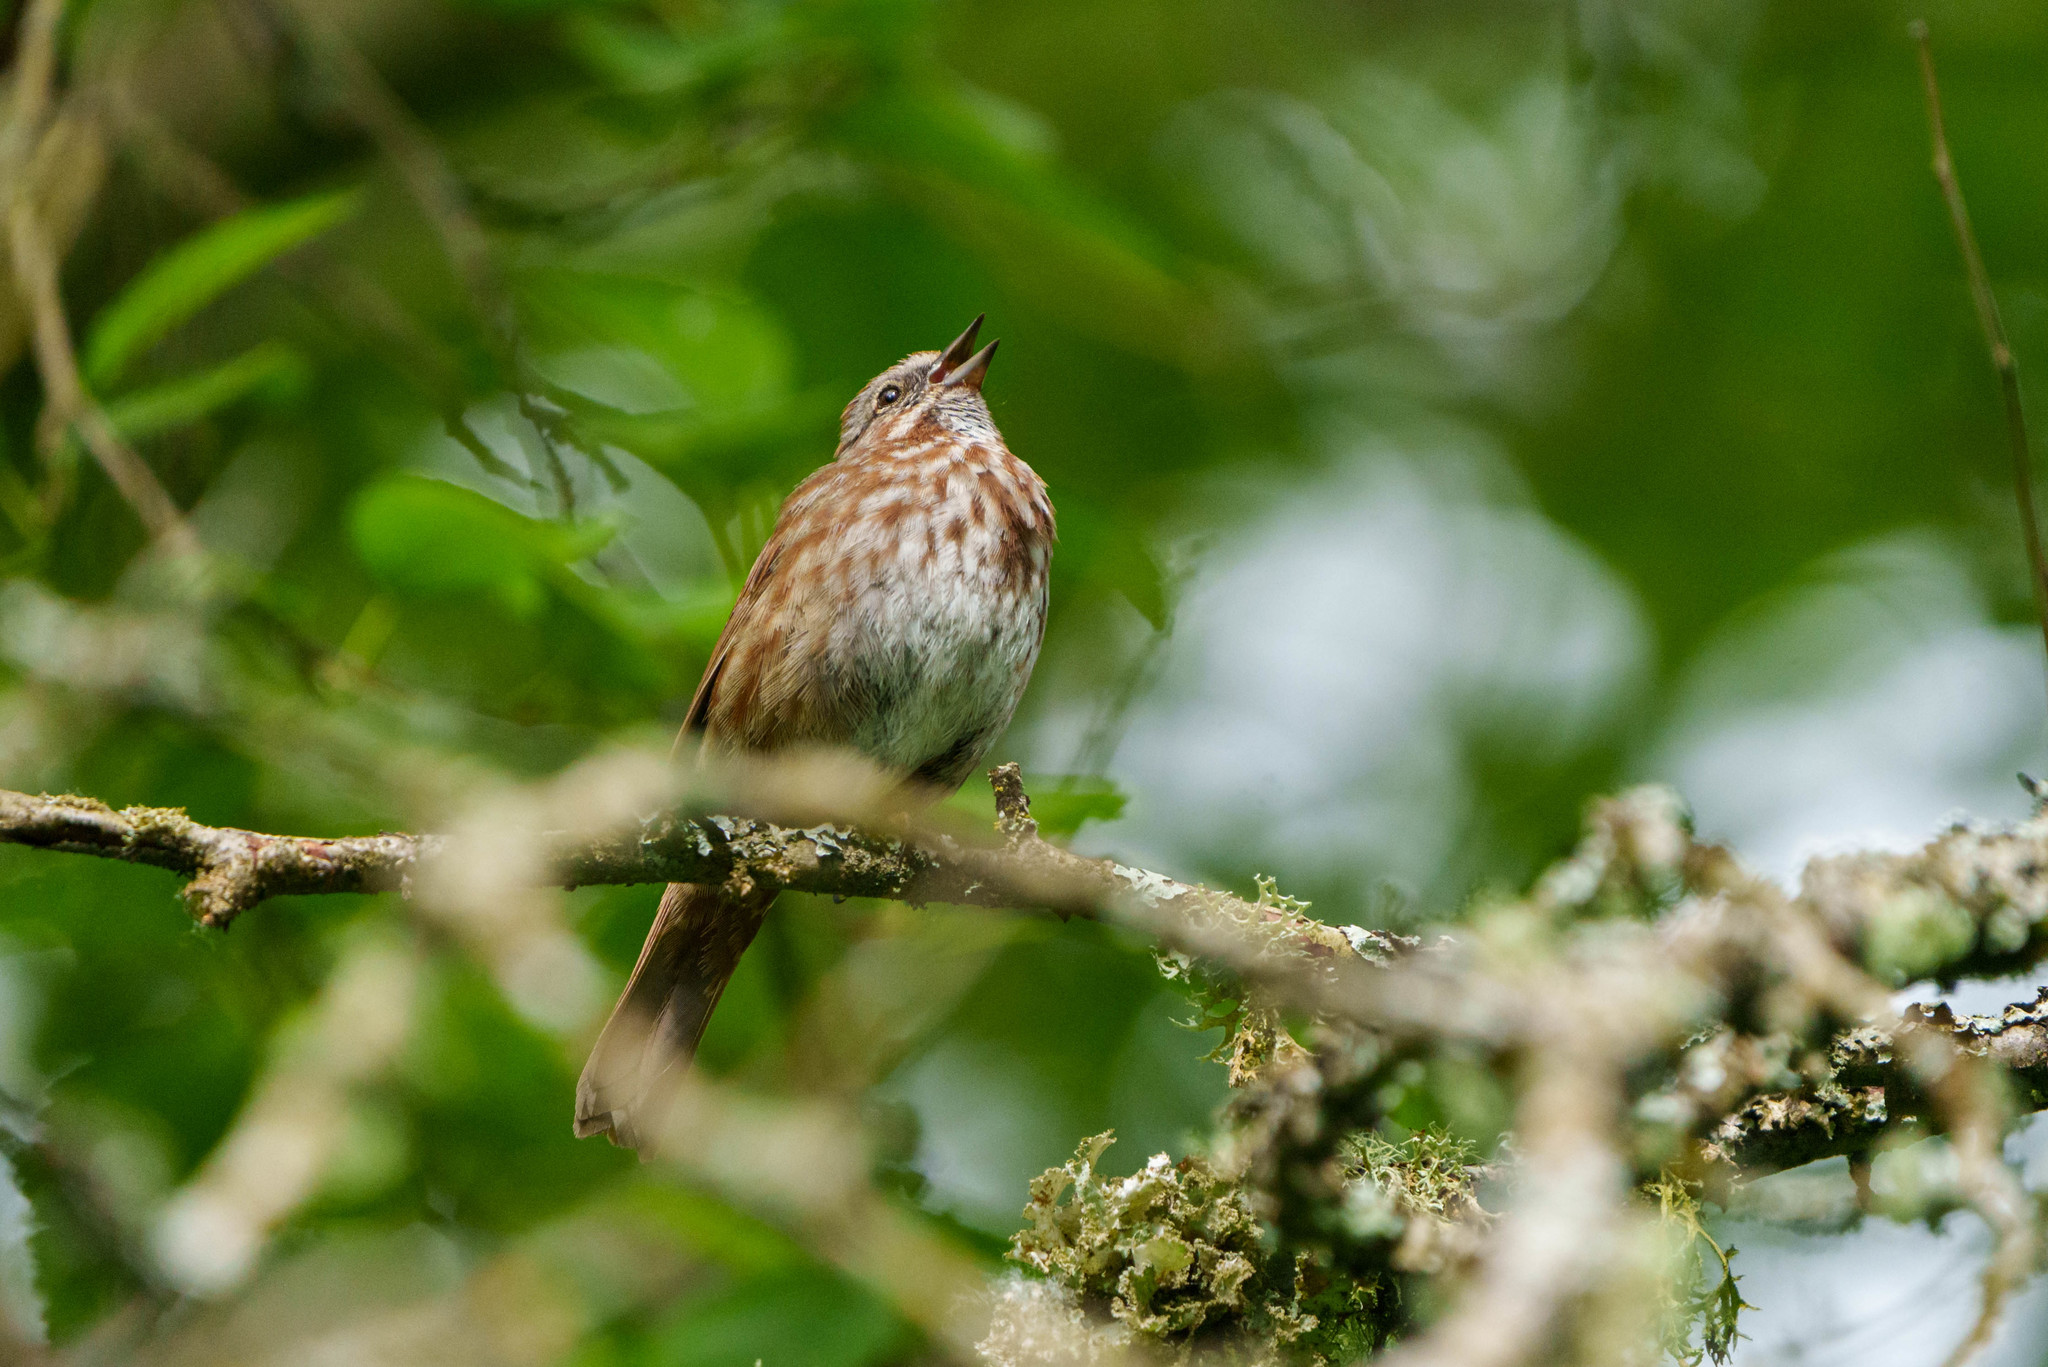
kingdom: Animalia
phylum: Chordata
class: Aves
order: Passeriformes
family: Passerellidae
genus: Melospiza
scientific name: Melospiza melodia
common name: Song sparrow
